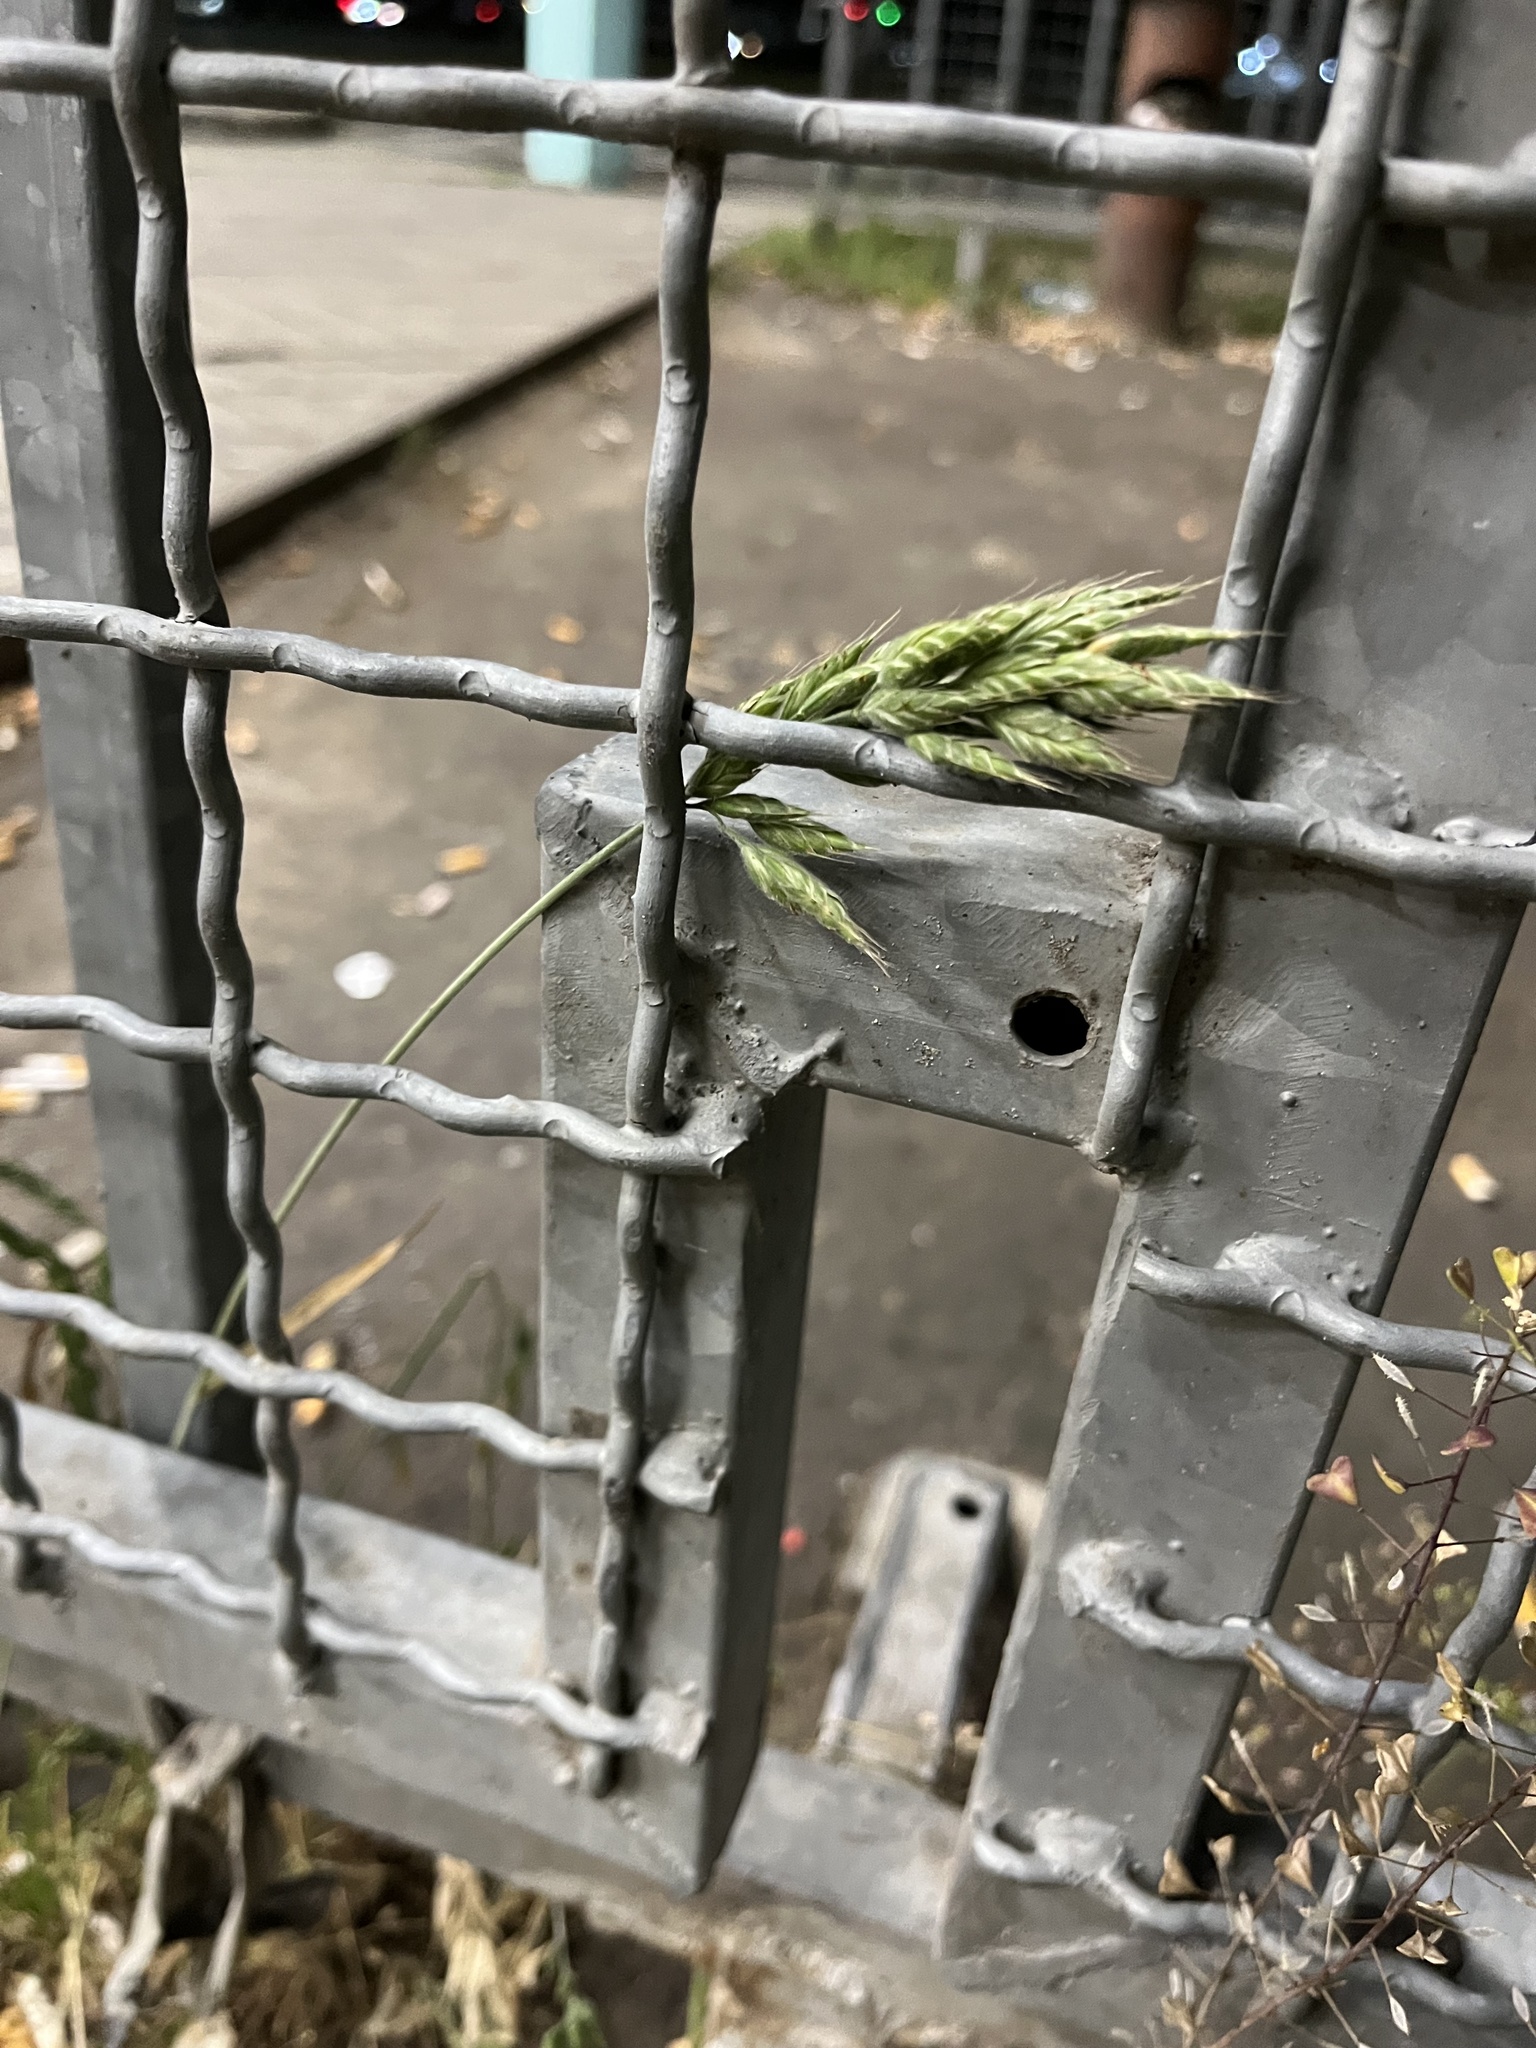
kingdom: Plantae
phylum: Tracheophyta
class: Liliopsida
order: Poales
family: Poaceae
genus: Bromus
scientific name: Bromus hordeaceus
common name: Soft brome
